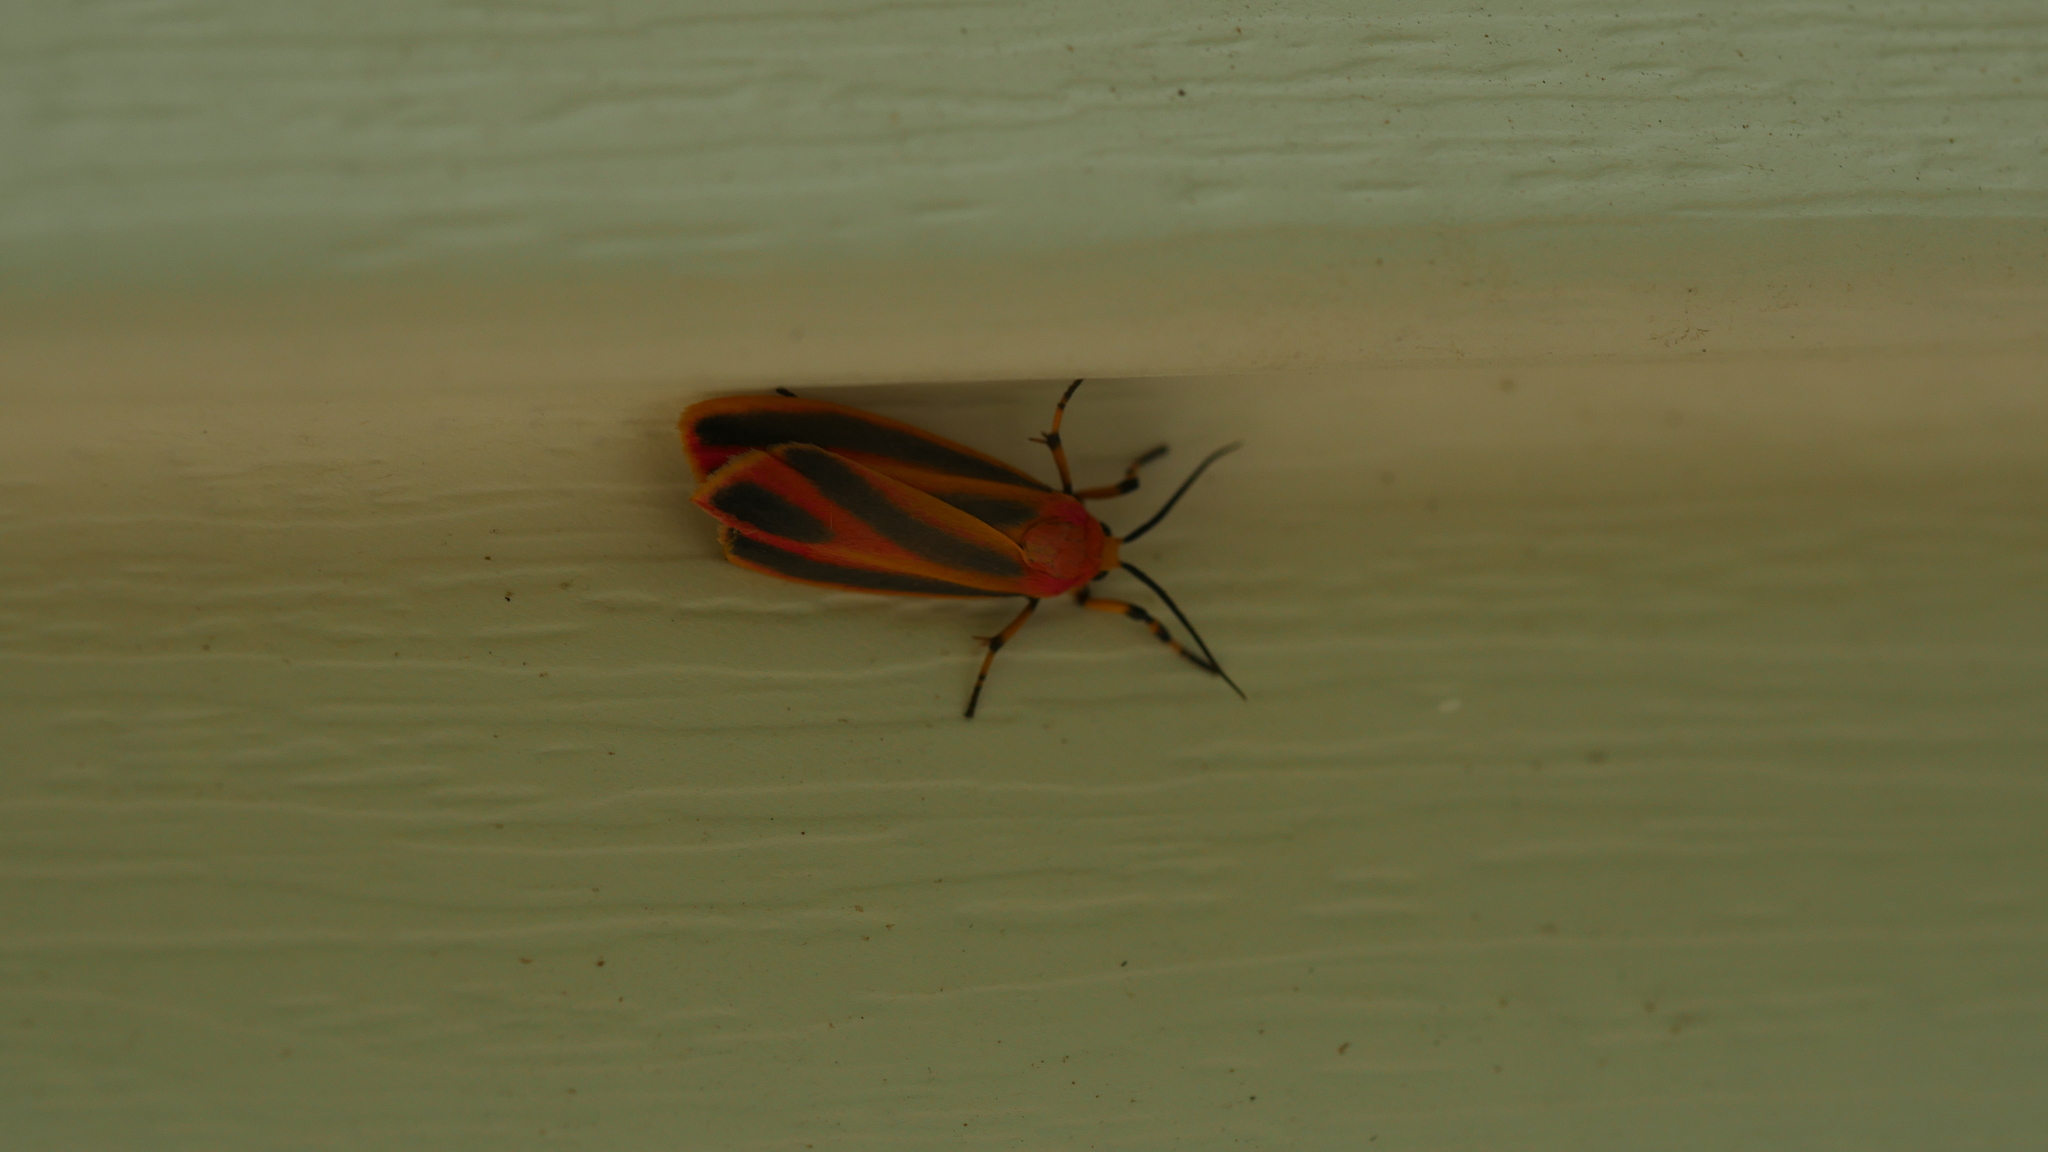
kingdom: Animalia
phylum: Arthropoda
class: Insecta
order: Lepidoptera
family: Erebidae
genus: Hypoprepia
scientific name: Hypoprepia miniata
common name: Scarlet-winged lichen moth
